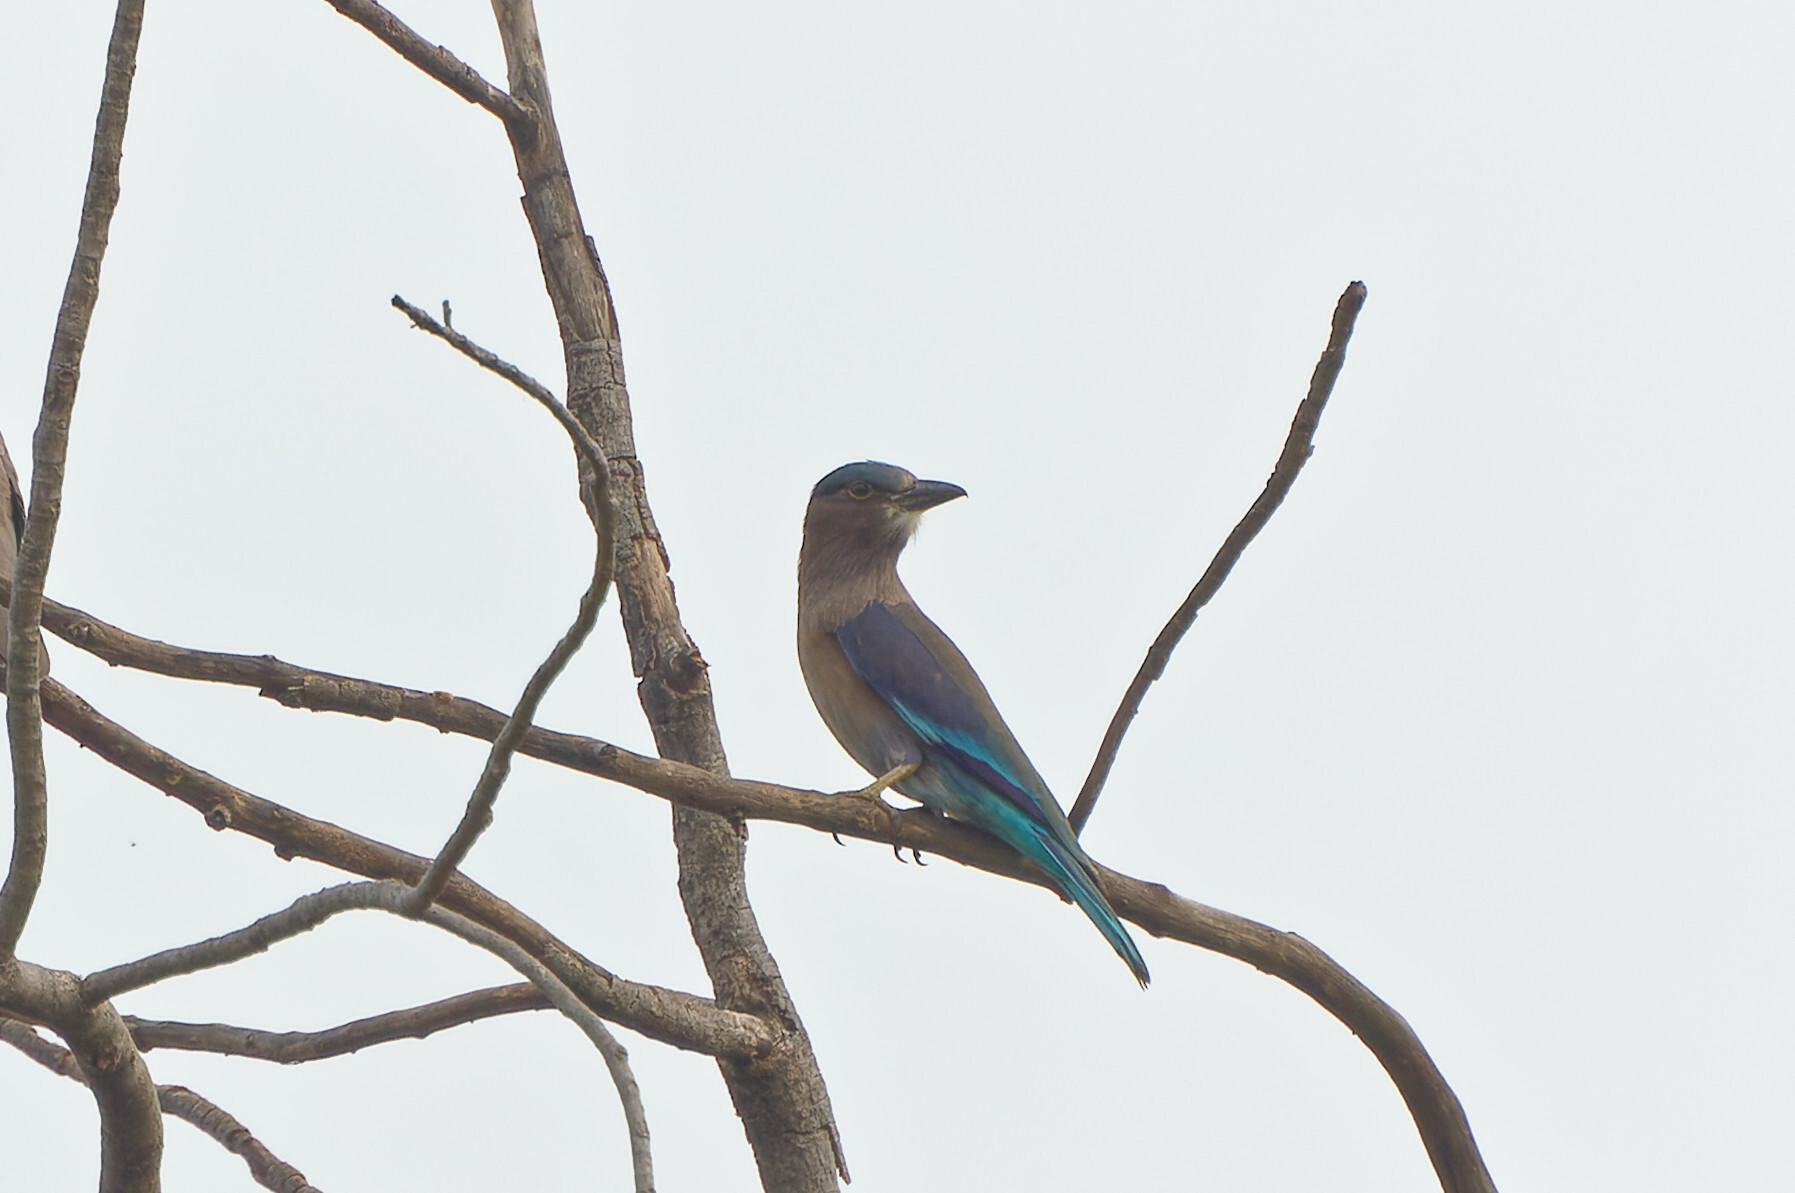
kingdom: Animalia
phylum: Chordata
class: Aves
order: Coraciiformes
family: Coraciidae
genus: Coracias
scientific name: Coracias affinis
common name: Indochinese roller
